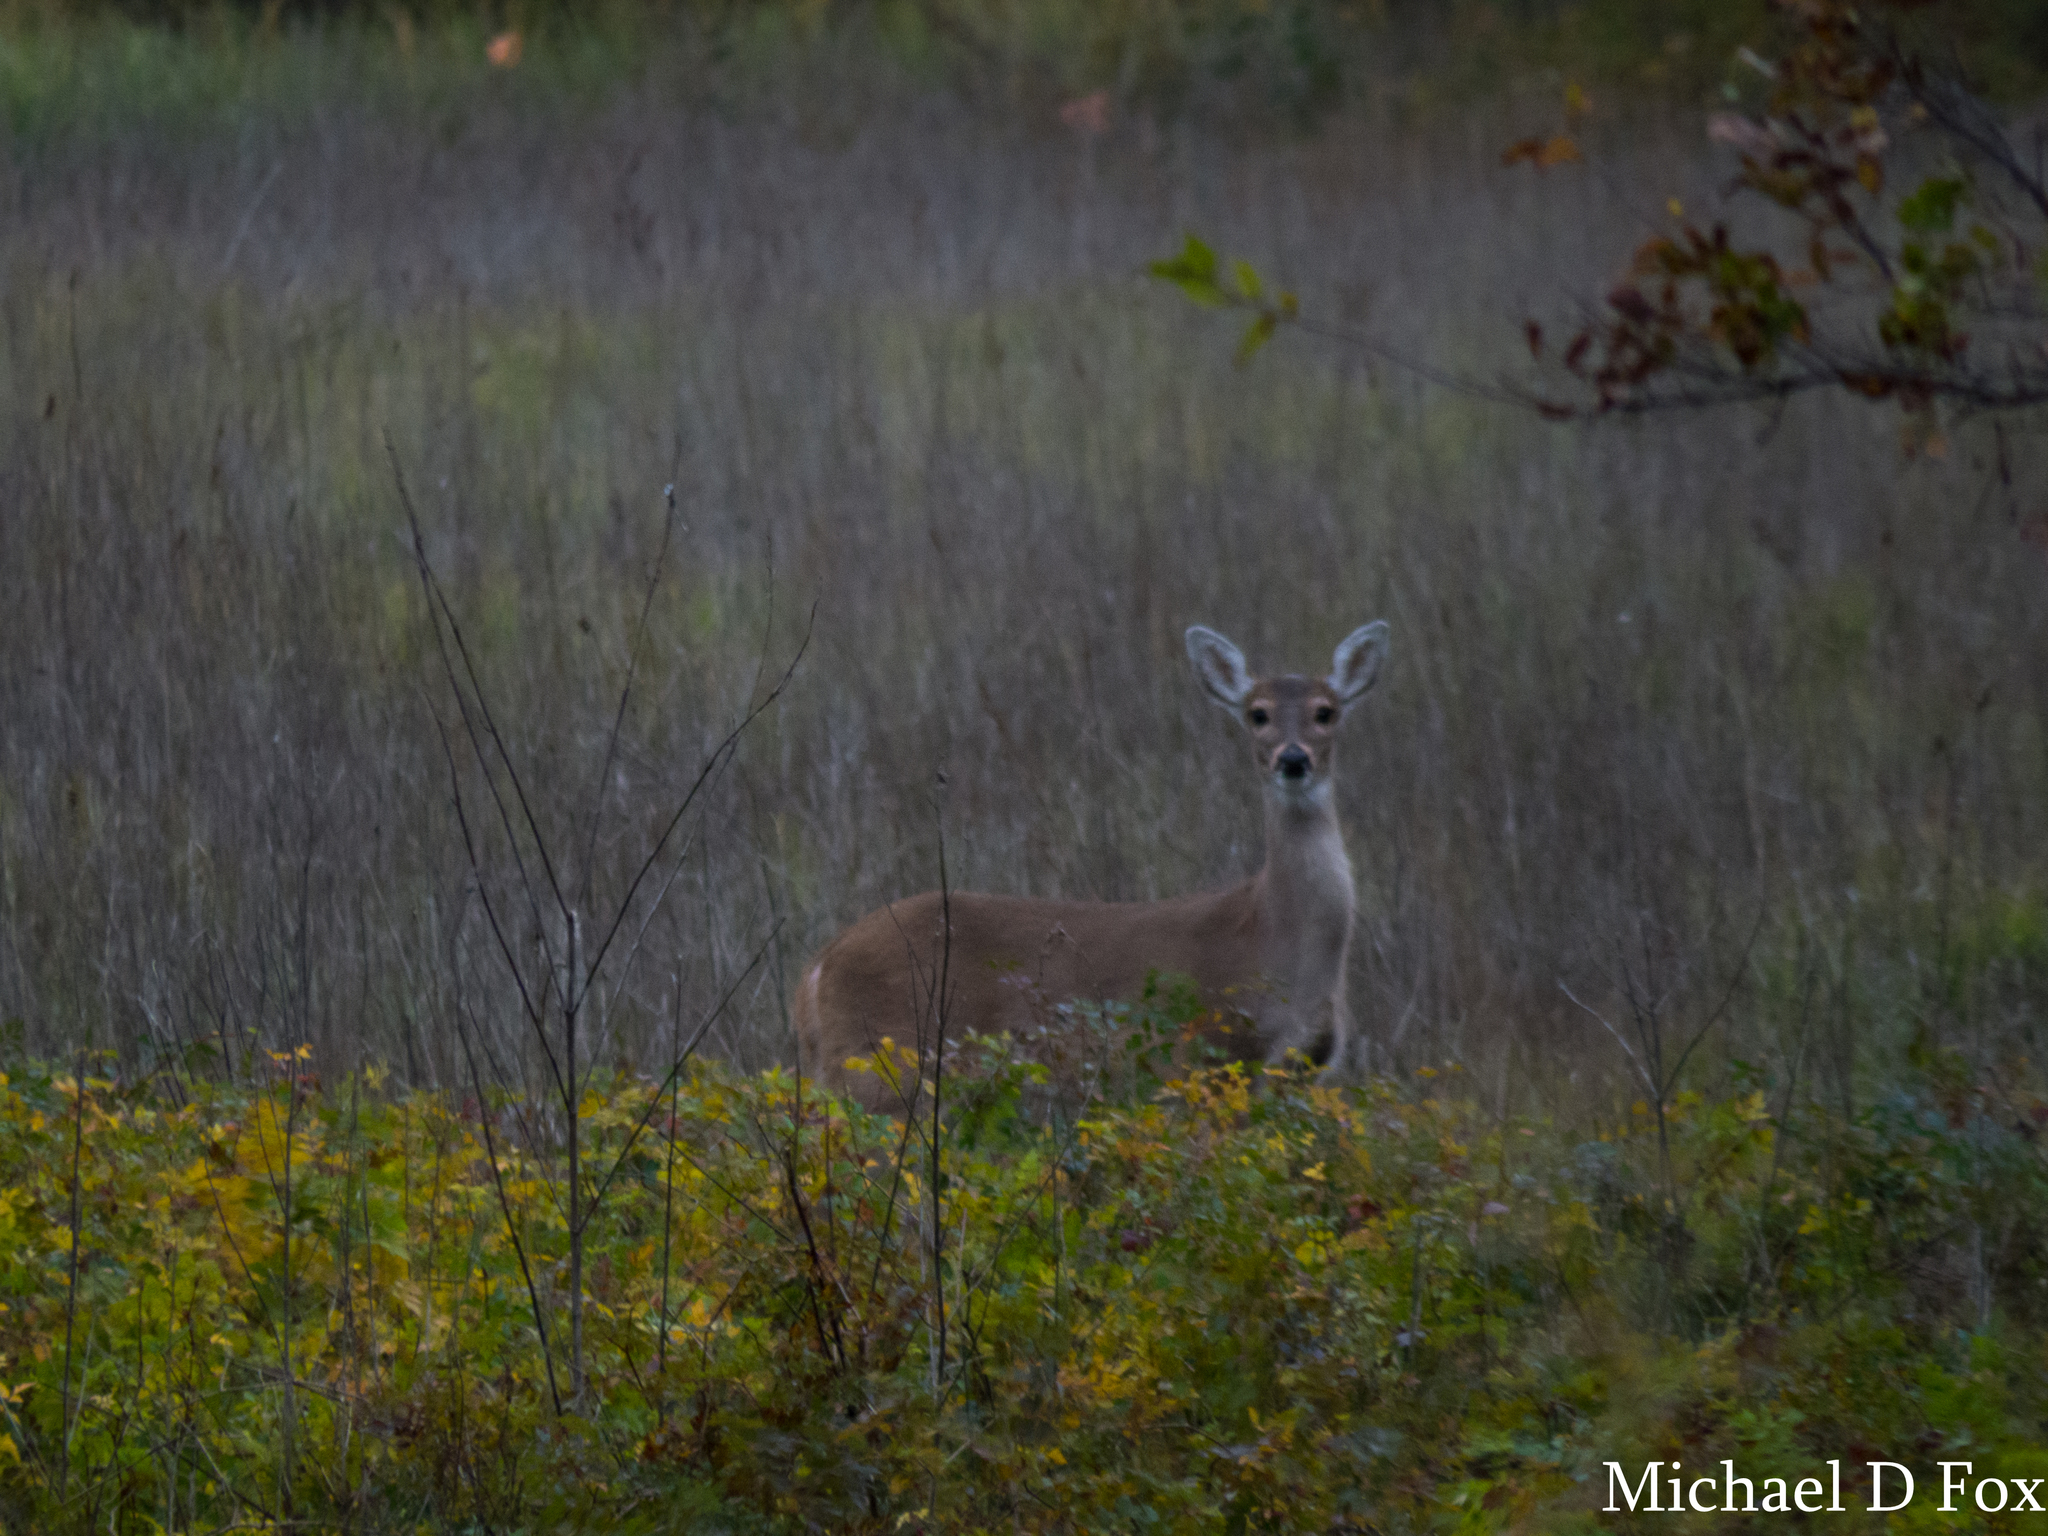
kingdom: Animalia
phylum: Chordata
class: Mammalia
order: Artiodactyla
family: Cervidae
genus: Odocoileus
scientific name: Odocoileus virginianus
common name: White-tailed deer
